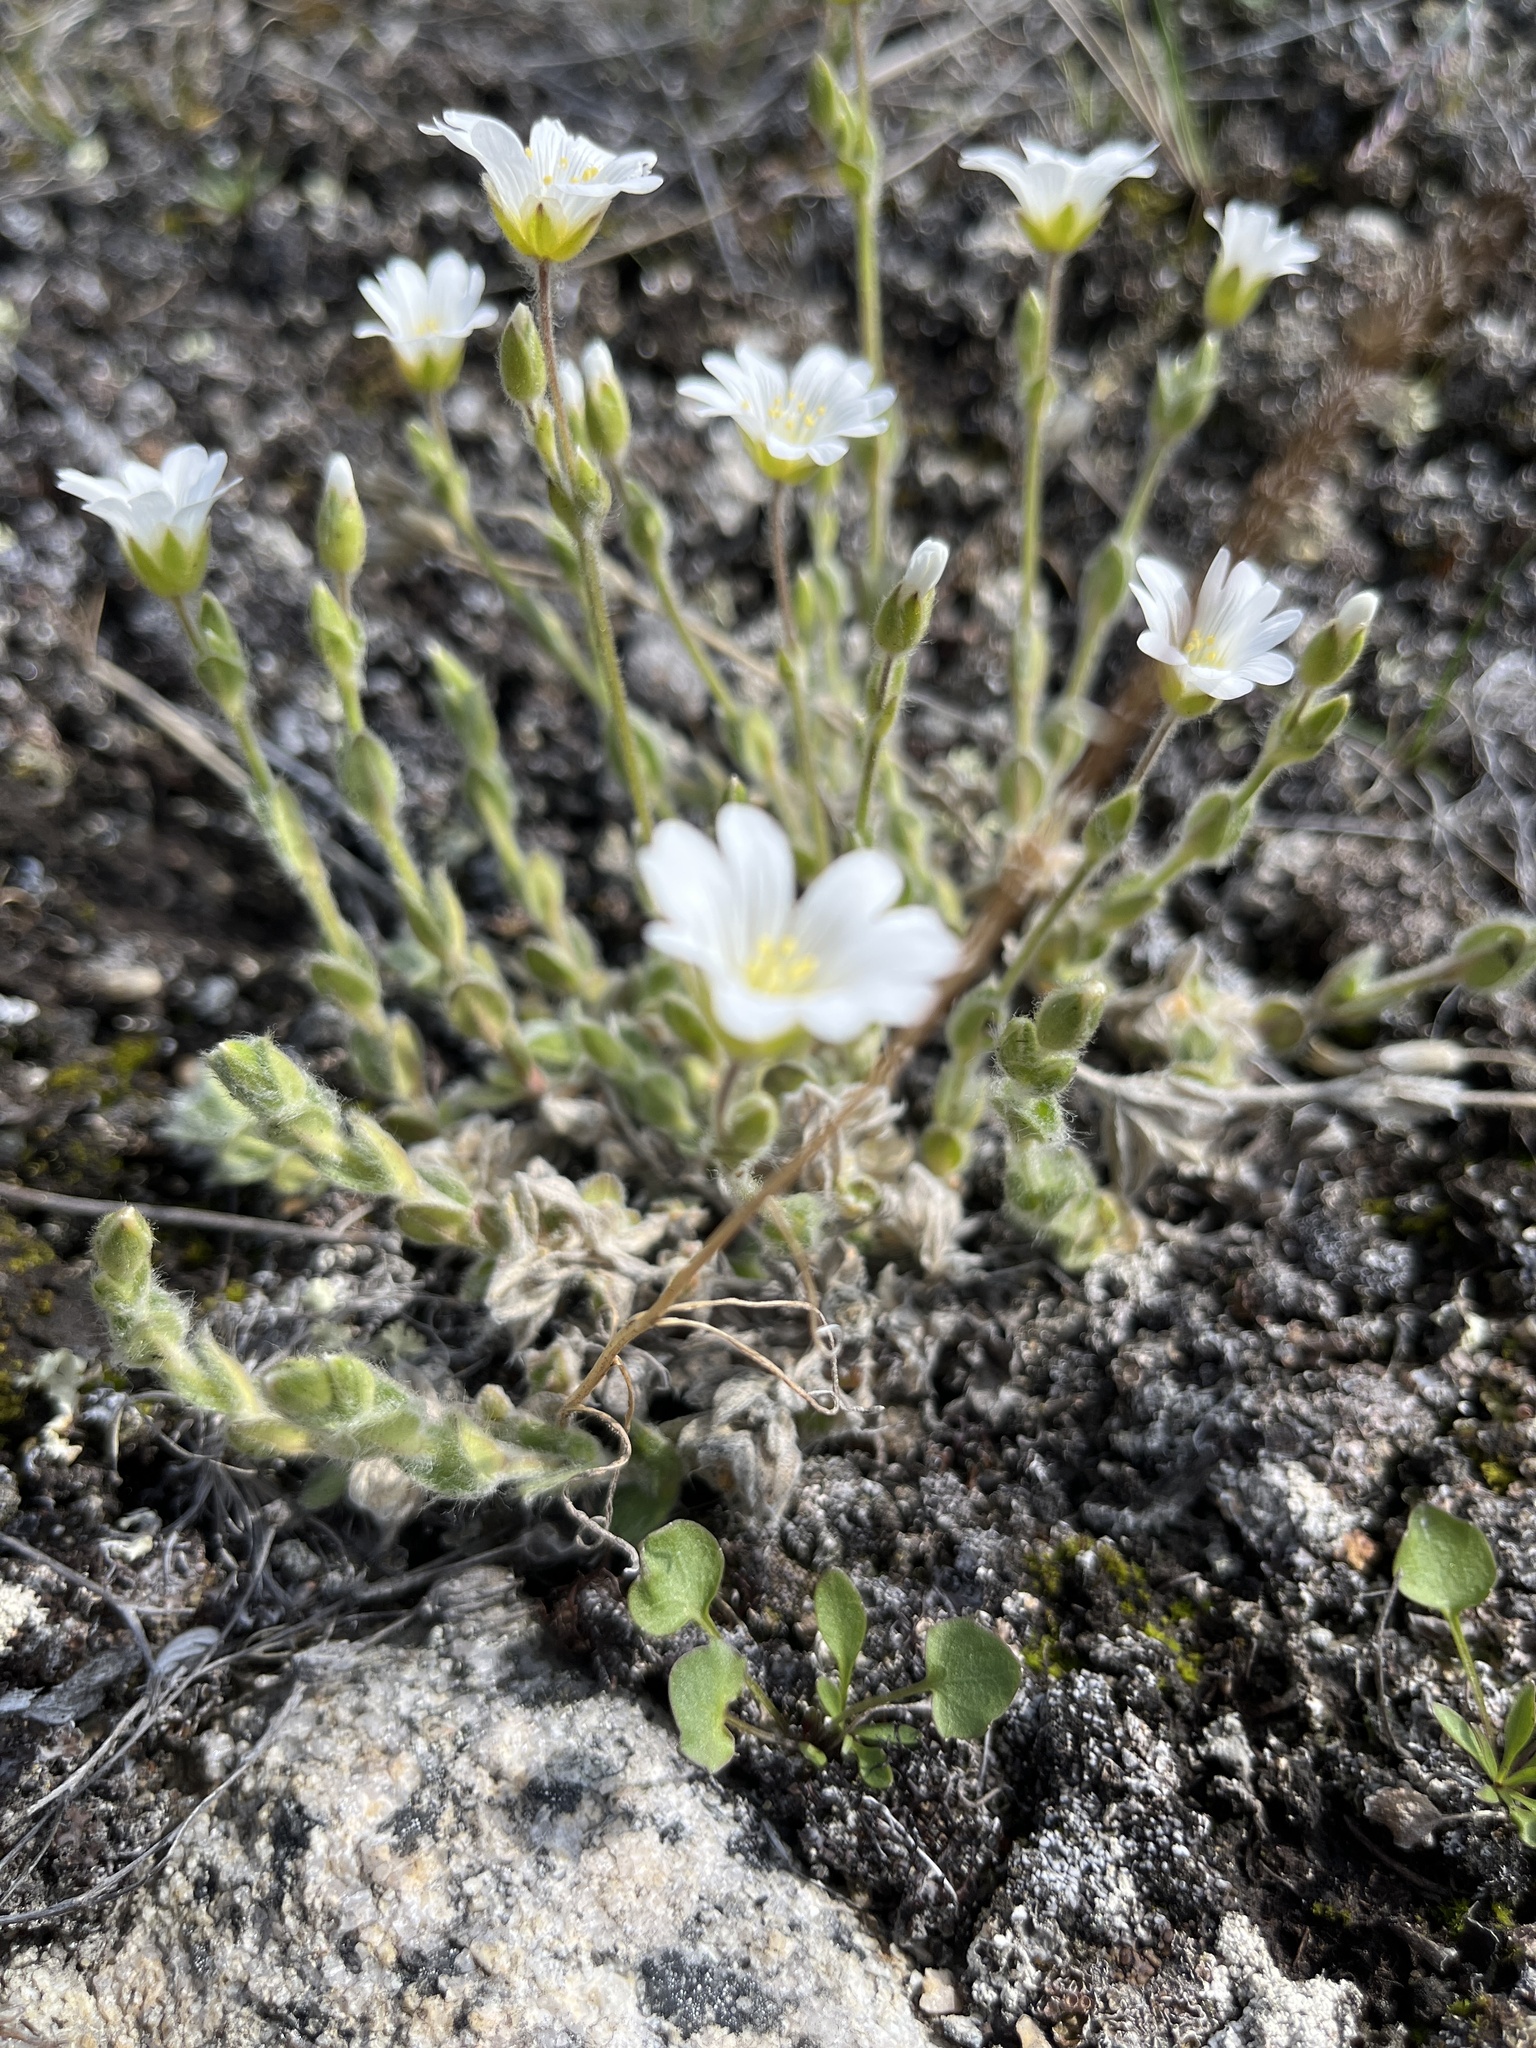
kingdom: Plantae
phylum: Tracheophyta
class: Magnoliopsida
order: Caryophyllales
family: Caryophyllaceae
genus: Cerastium
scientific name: Cerastium alpinum
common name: Alpine mouse-ear
